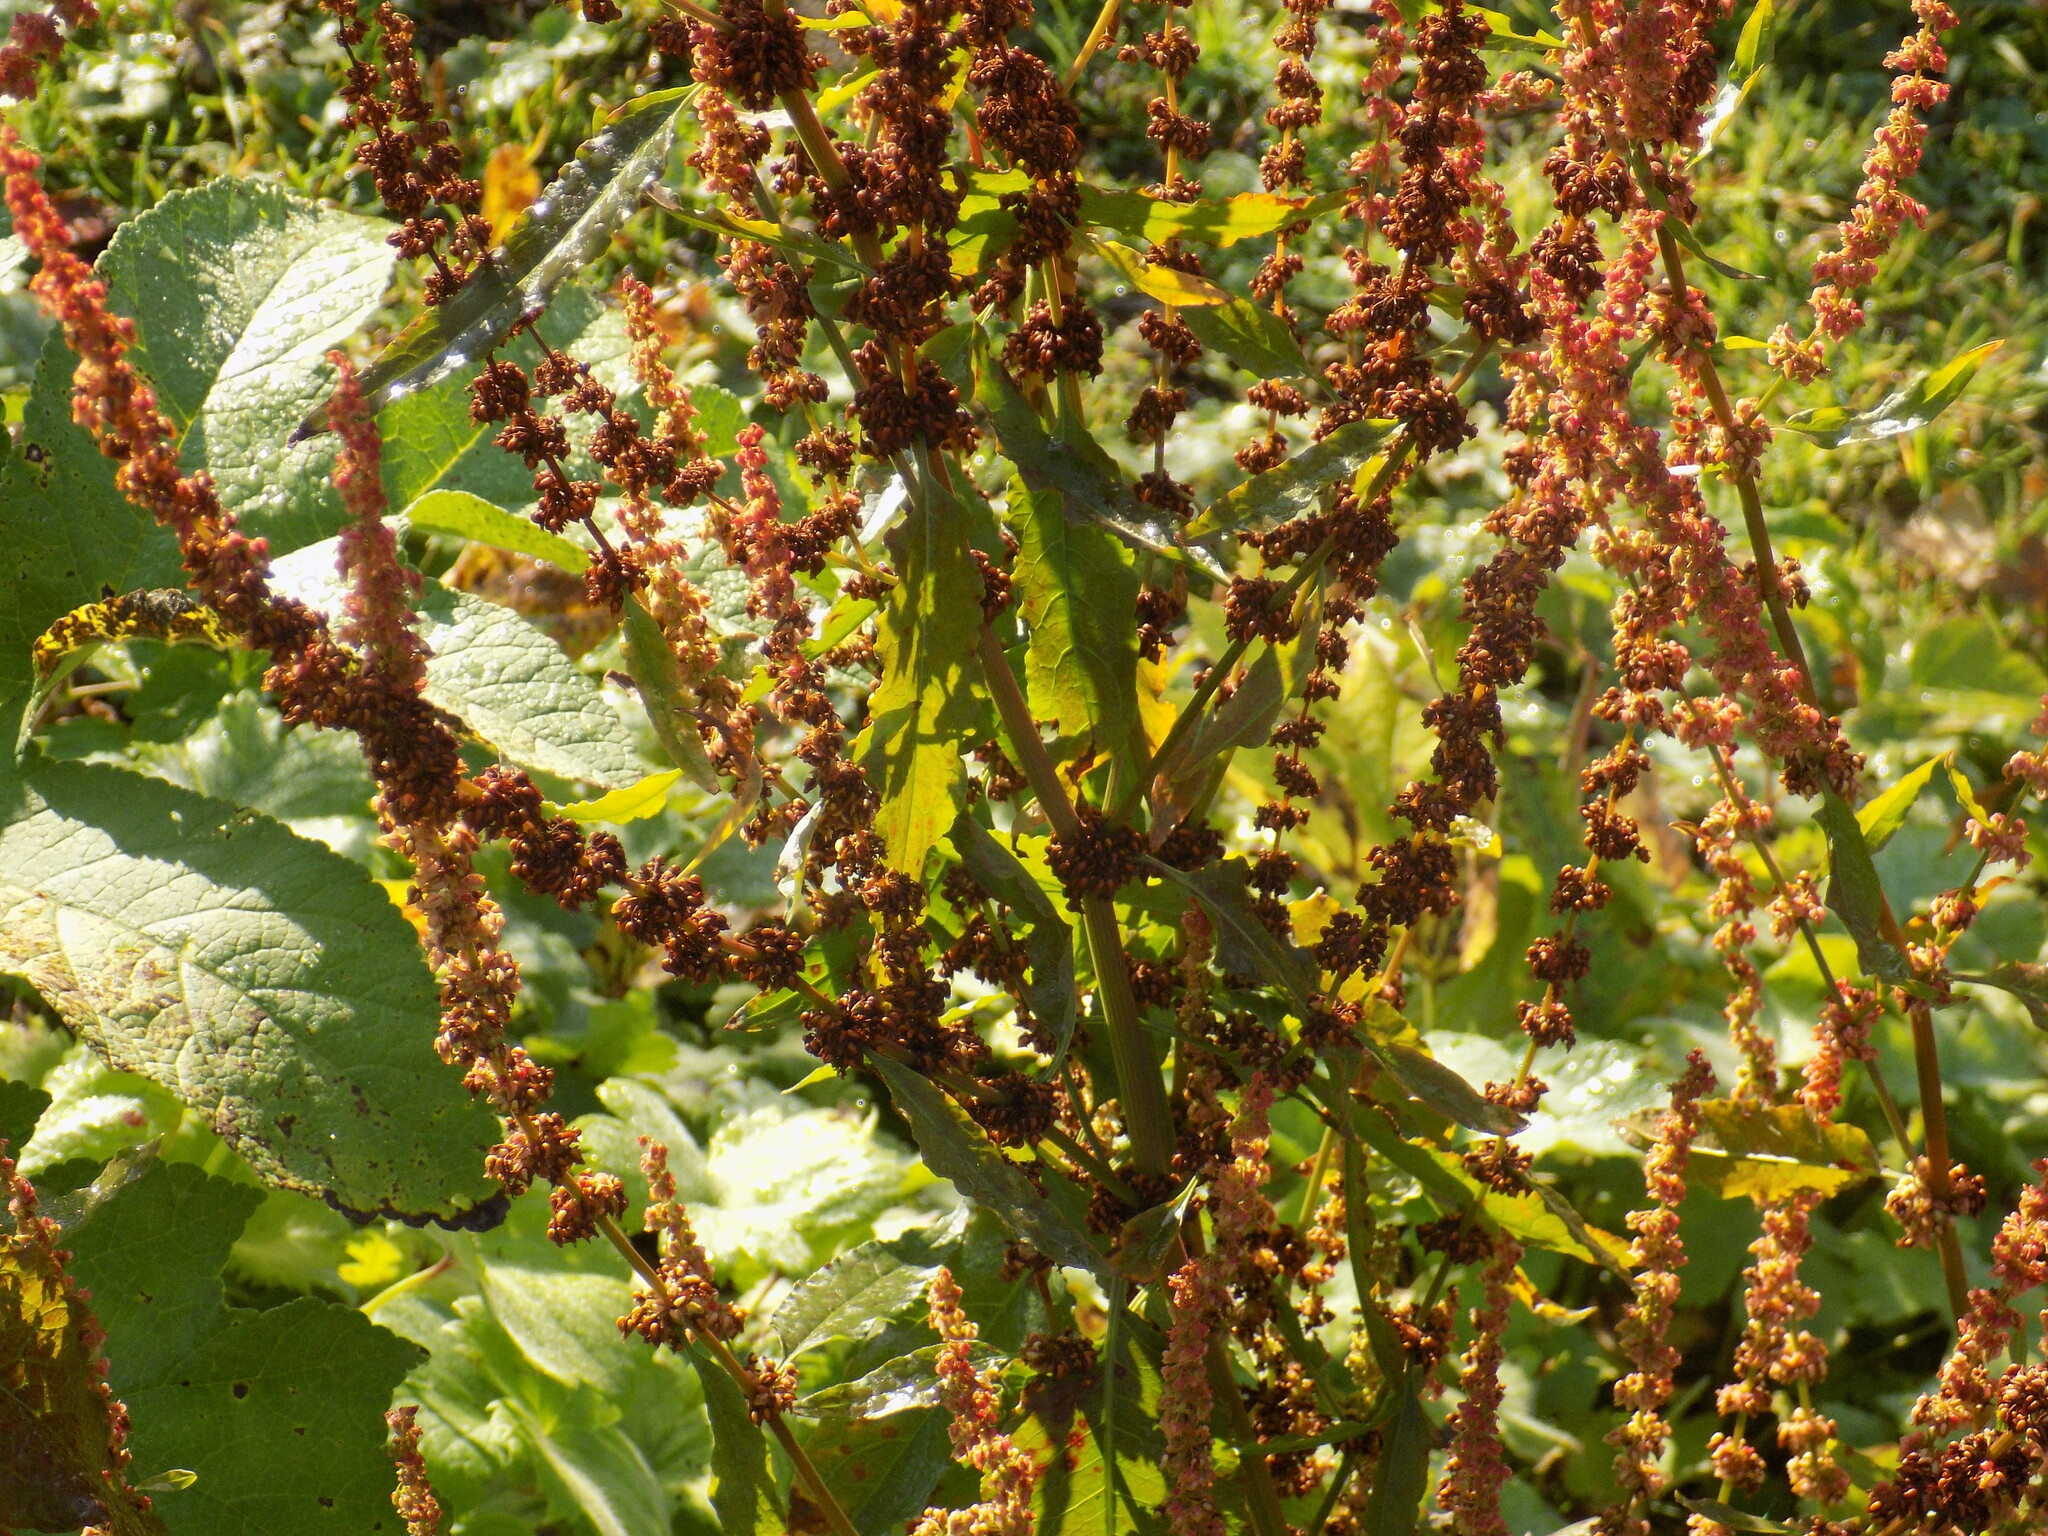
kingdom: Plantae
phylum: Tracheophyta
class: Magnoliopsida
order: Caryophyllales
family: Polygonaceae
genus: Rumex
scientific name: Rumex obtusifolius
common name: Bitter dock
